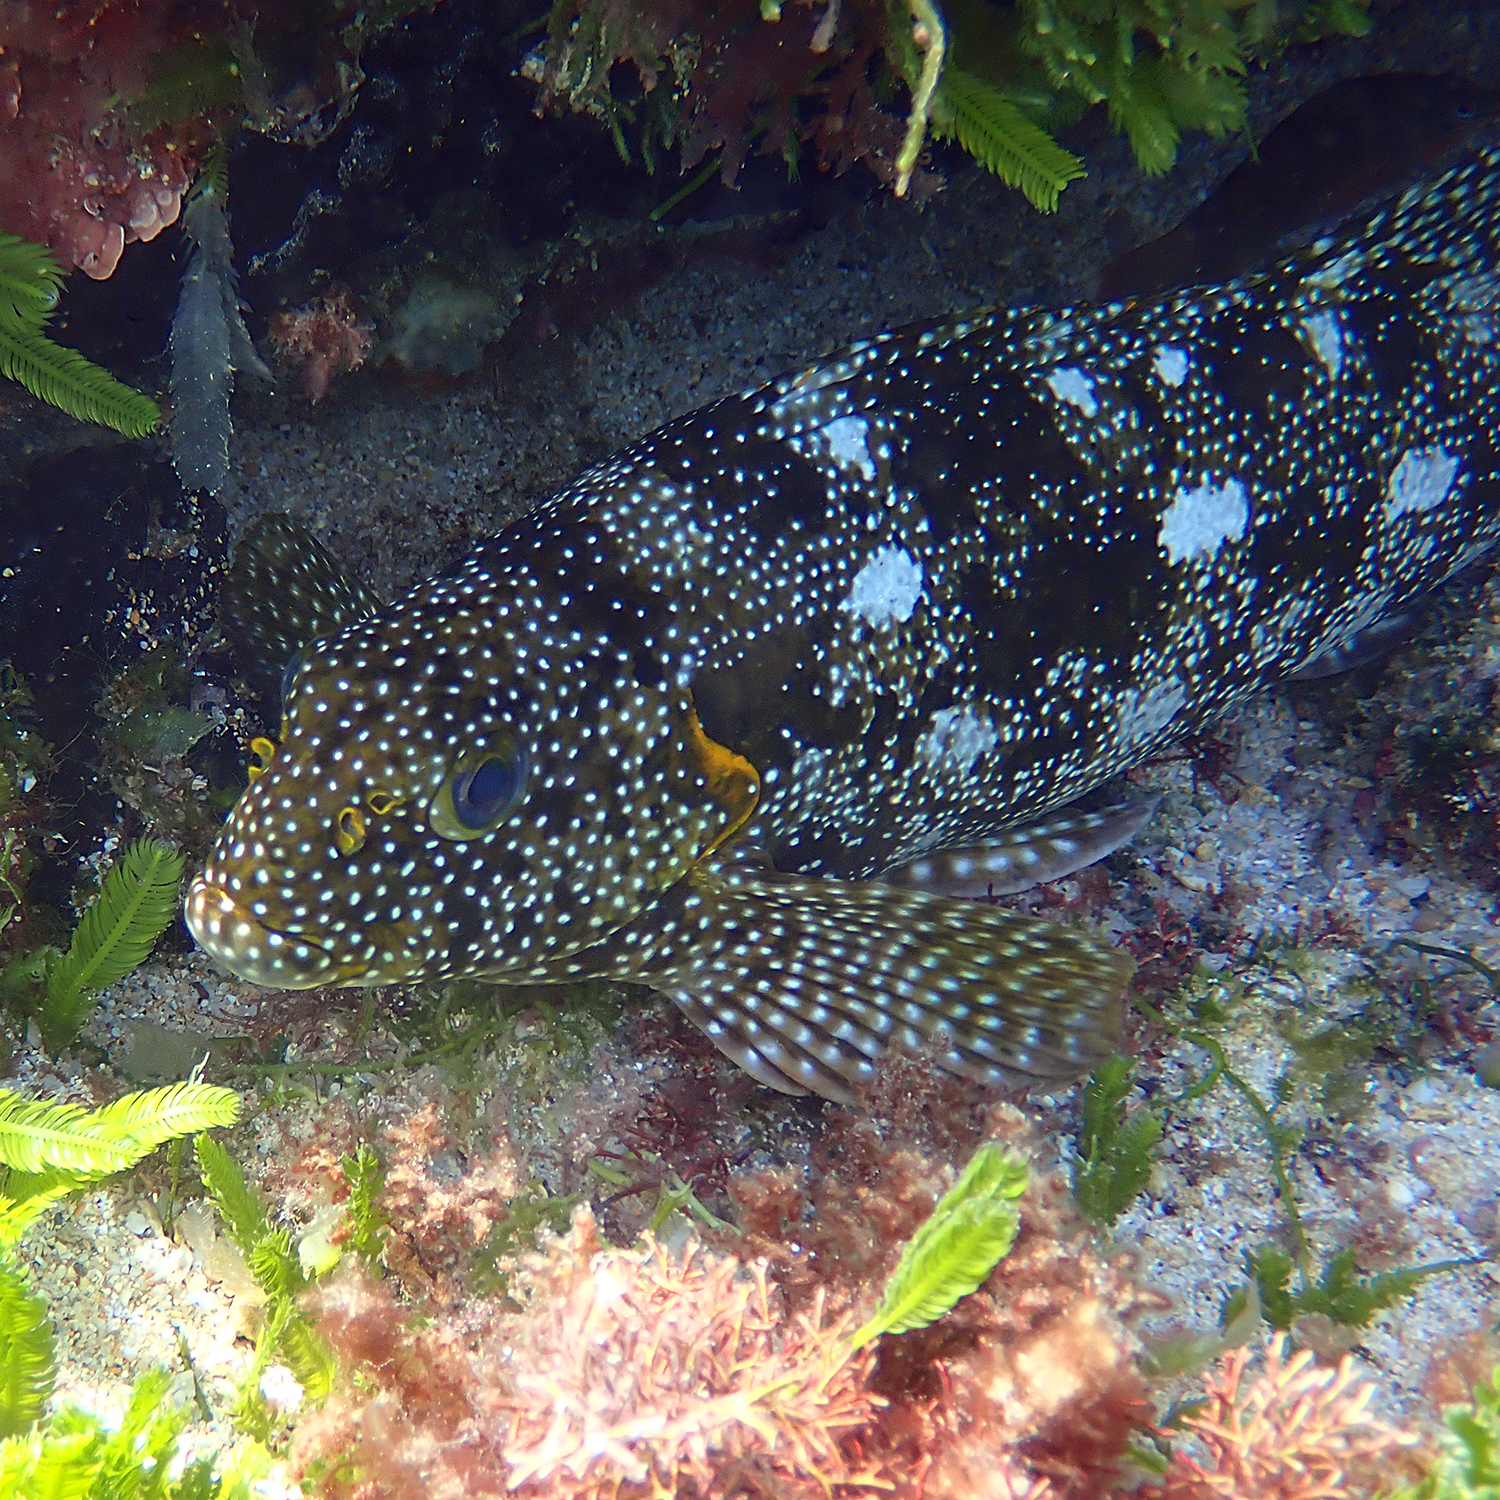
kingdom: Animalia
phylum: Chordata
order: Perciformes
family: Aplodactylidae
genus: Aplodactylus
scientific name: Aplodactylus etheridgii
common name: Notchheaded marblefish
